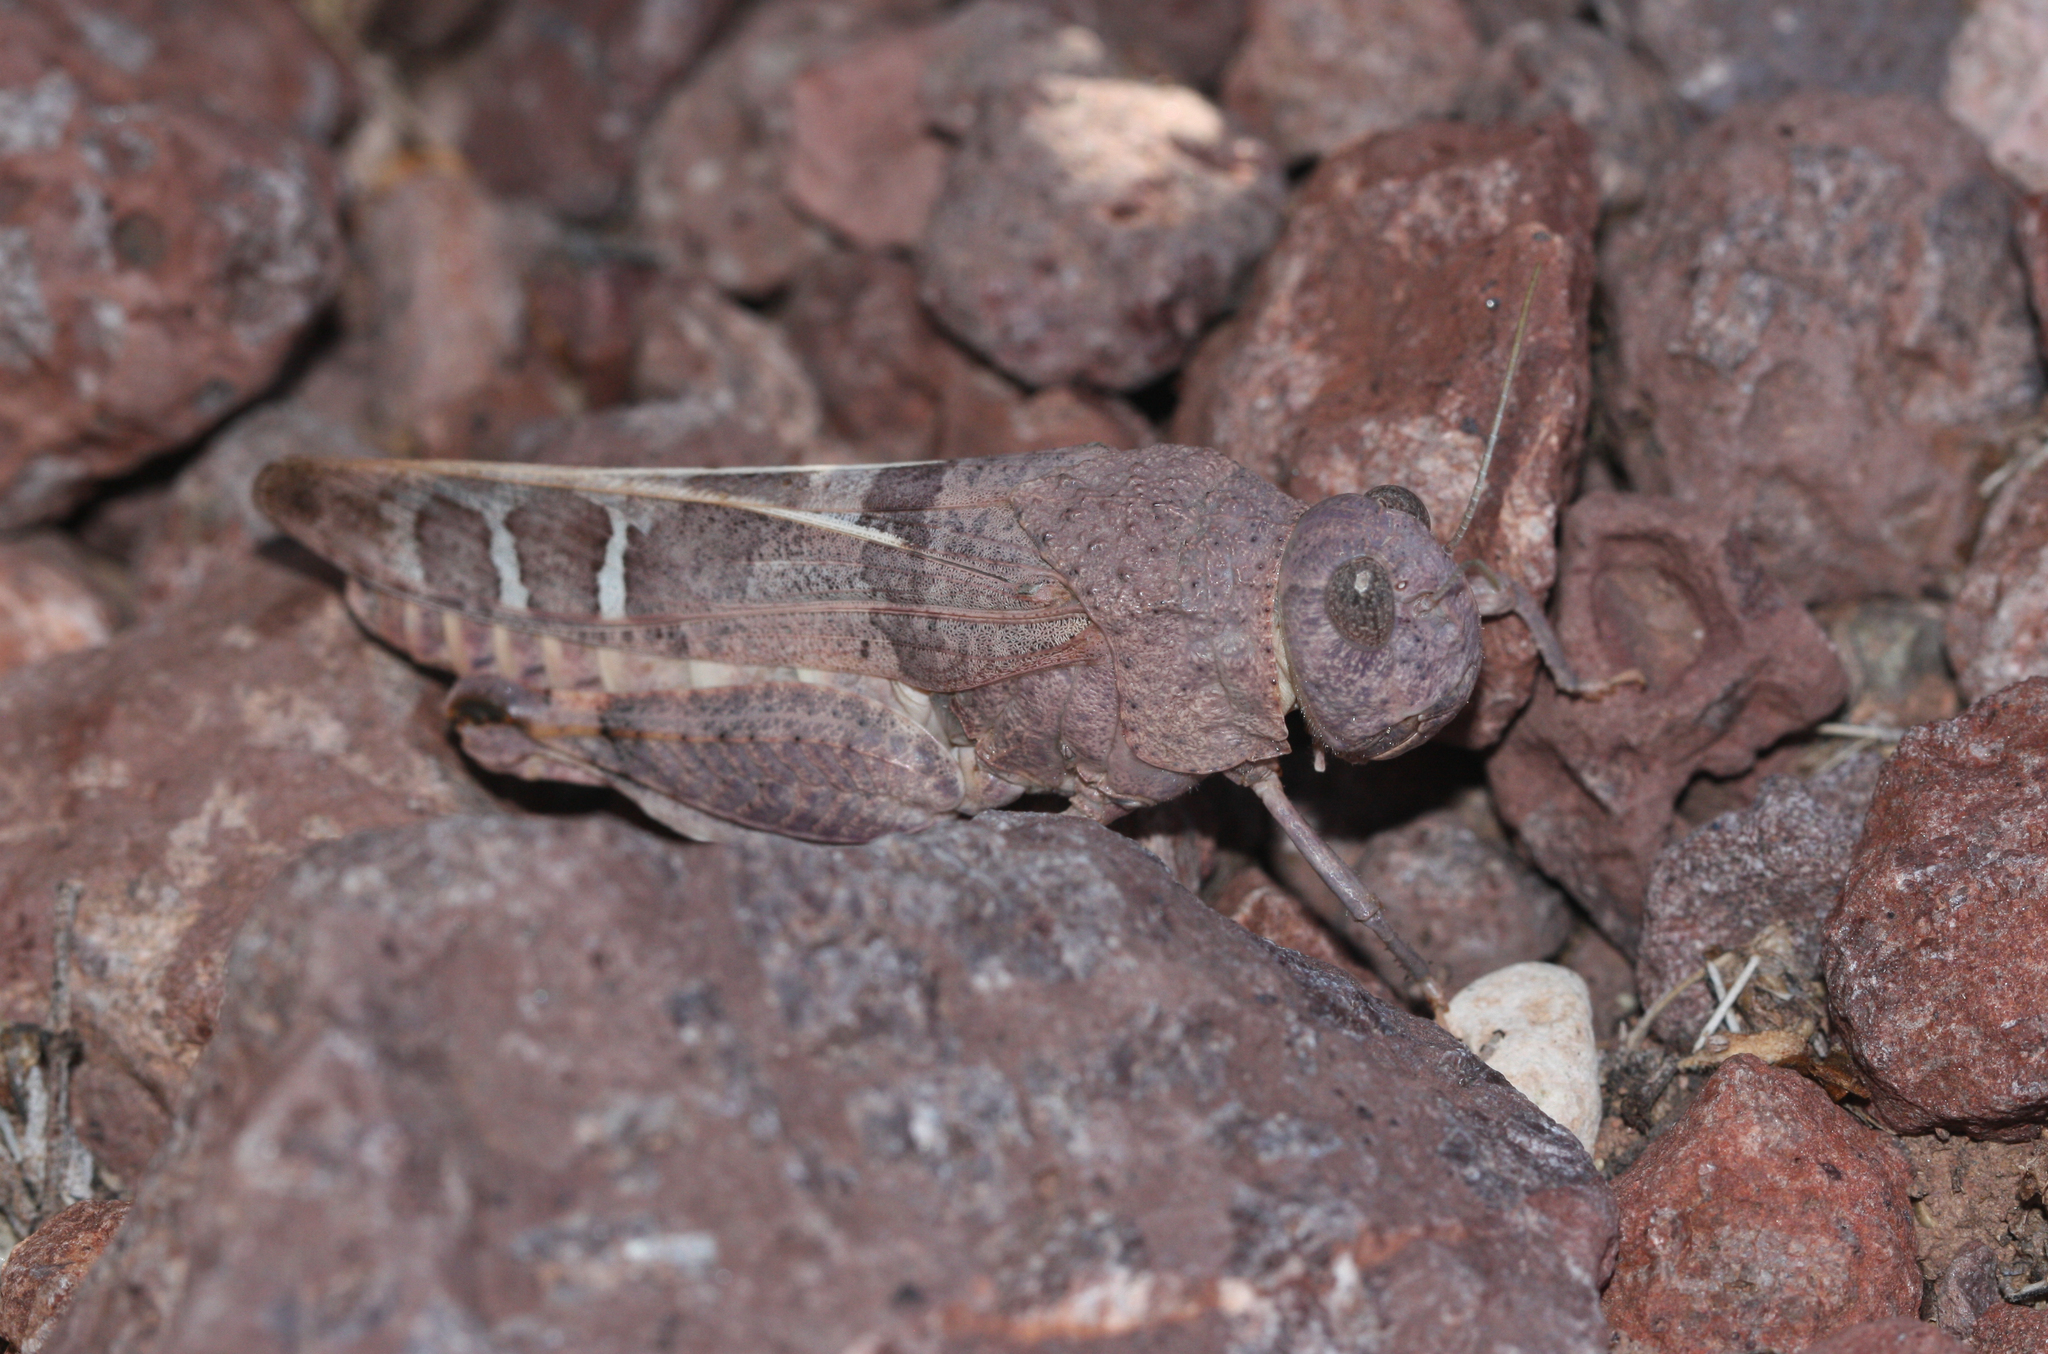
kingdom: Animalia
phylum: Arthropoda
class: Insecta
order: Orthoptera
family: Acrididae
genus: Leprus
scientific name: Leprus intermedius
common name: Saussure's blue-winged grasshopper
